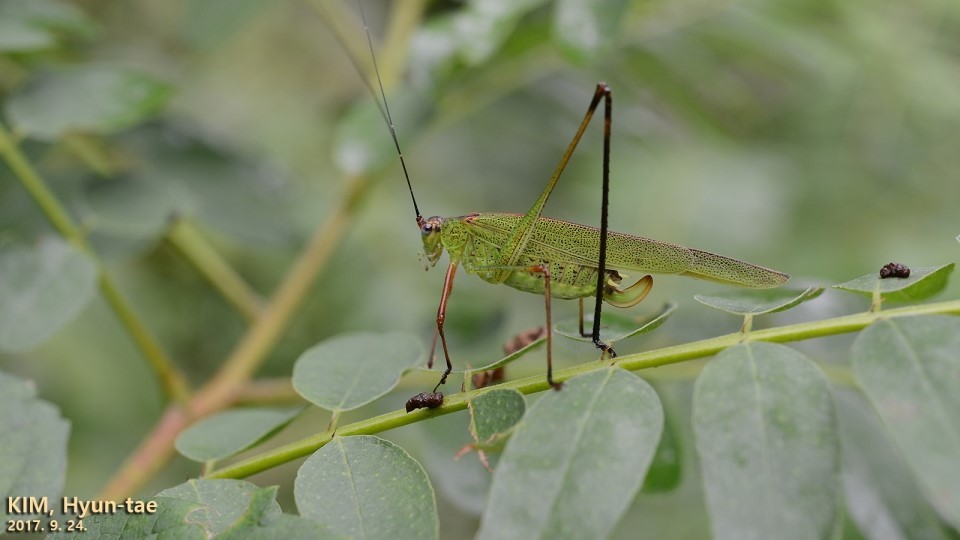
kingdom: Animalia
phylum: Arthropoda
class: Insecta
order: Orthoptera
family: Tettigoniidae
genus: Phaneroptera
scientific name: Phaneroptera nigroantennata
